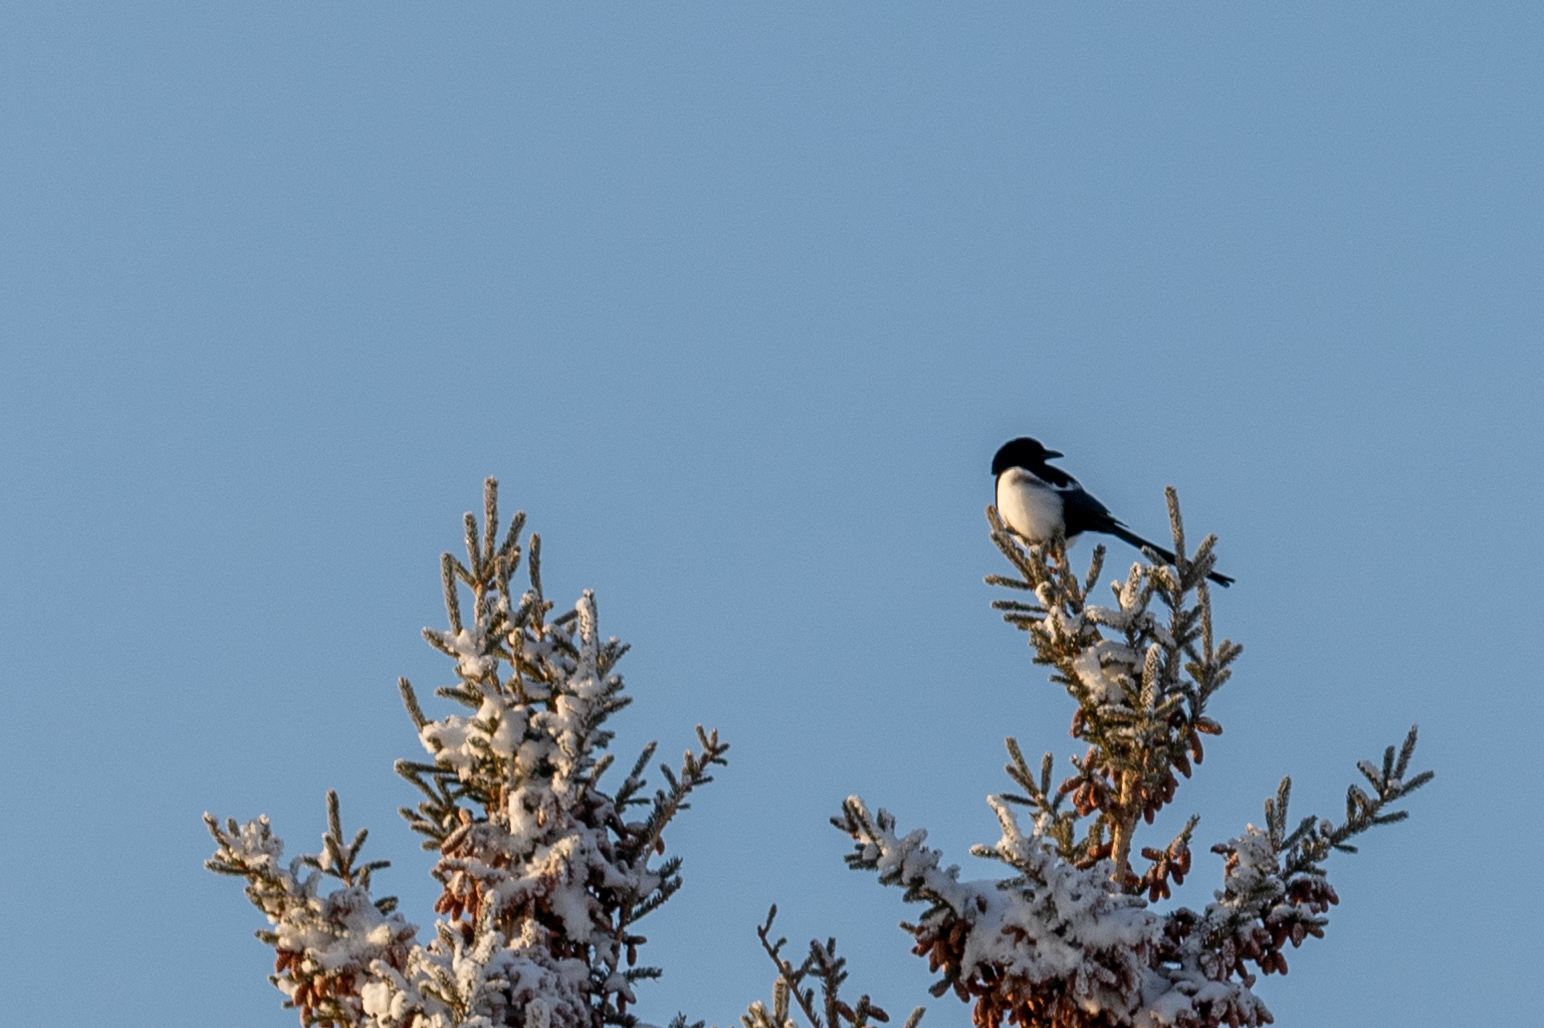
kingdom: Animalia
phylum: Chordata
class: Aves
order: Passeriformes
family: Corvidae
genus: Pica
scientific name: Pica hudsonia
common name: Black-billed magpie
